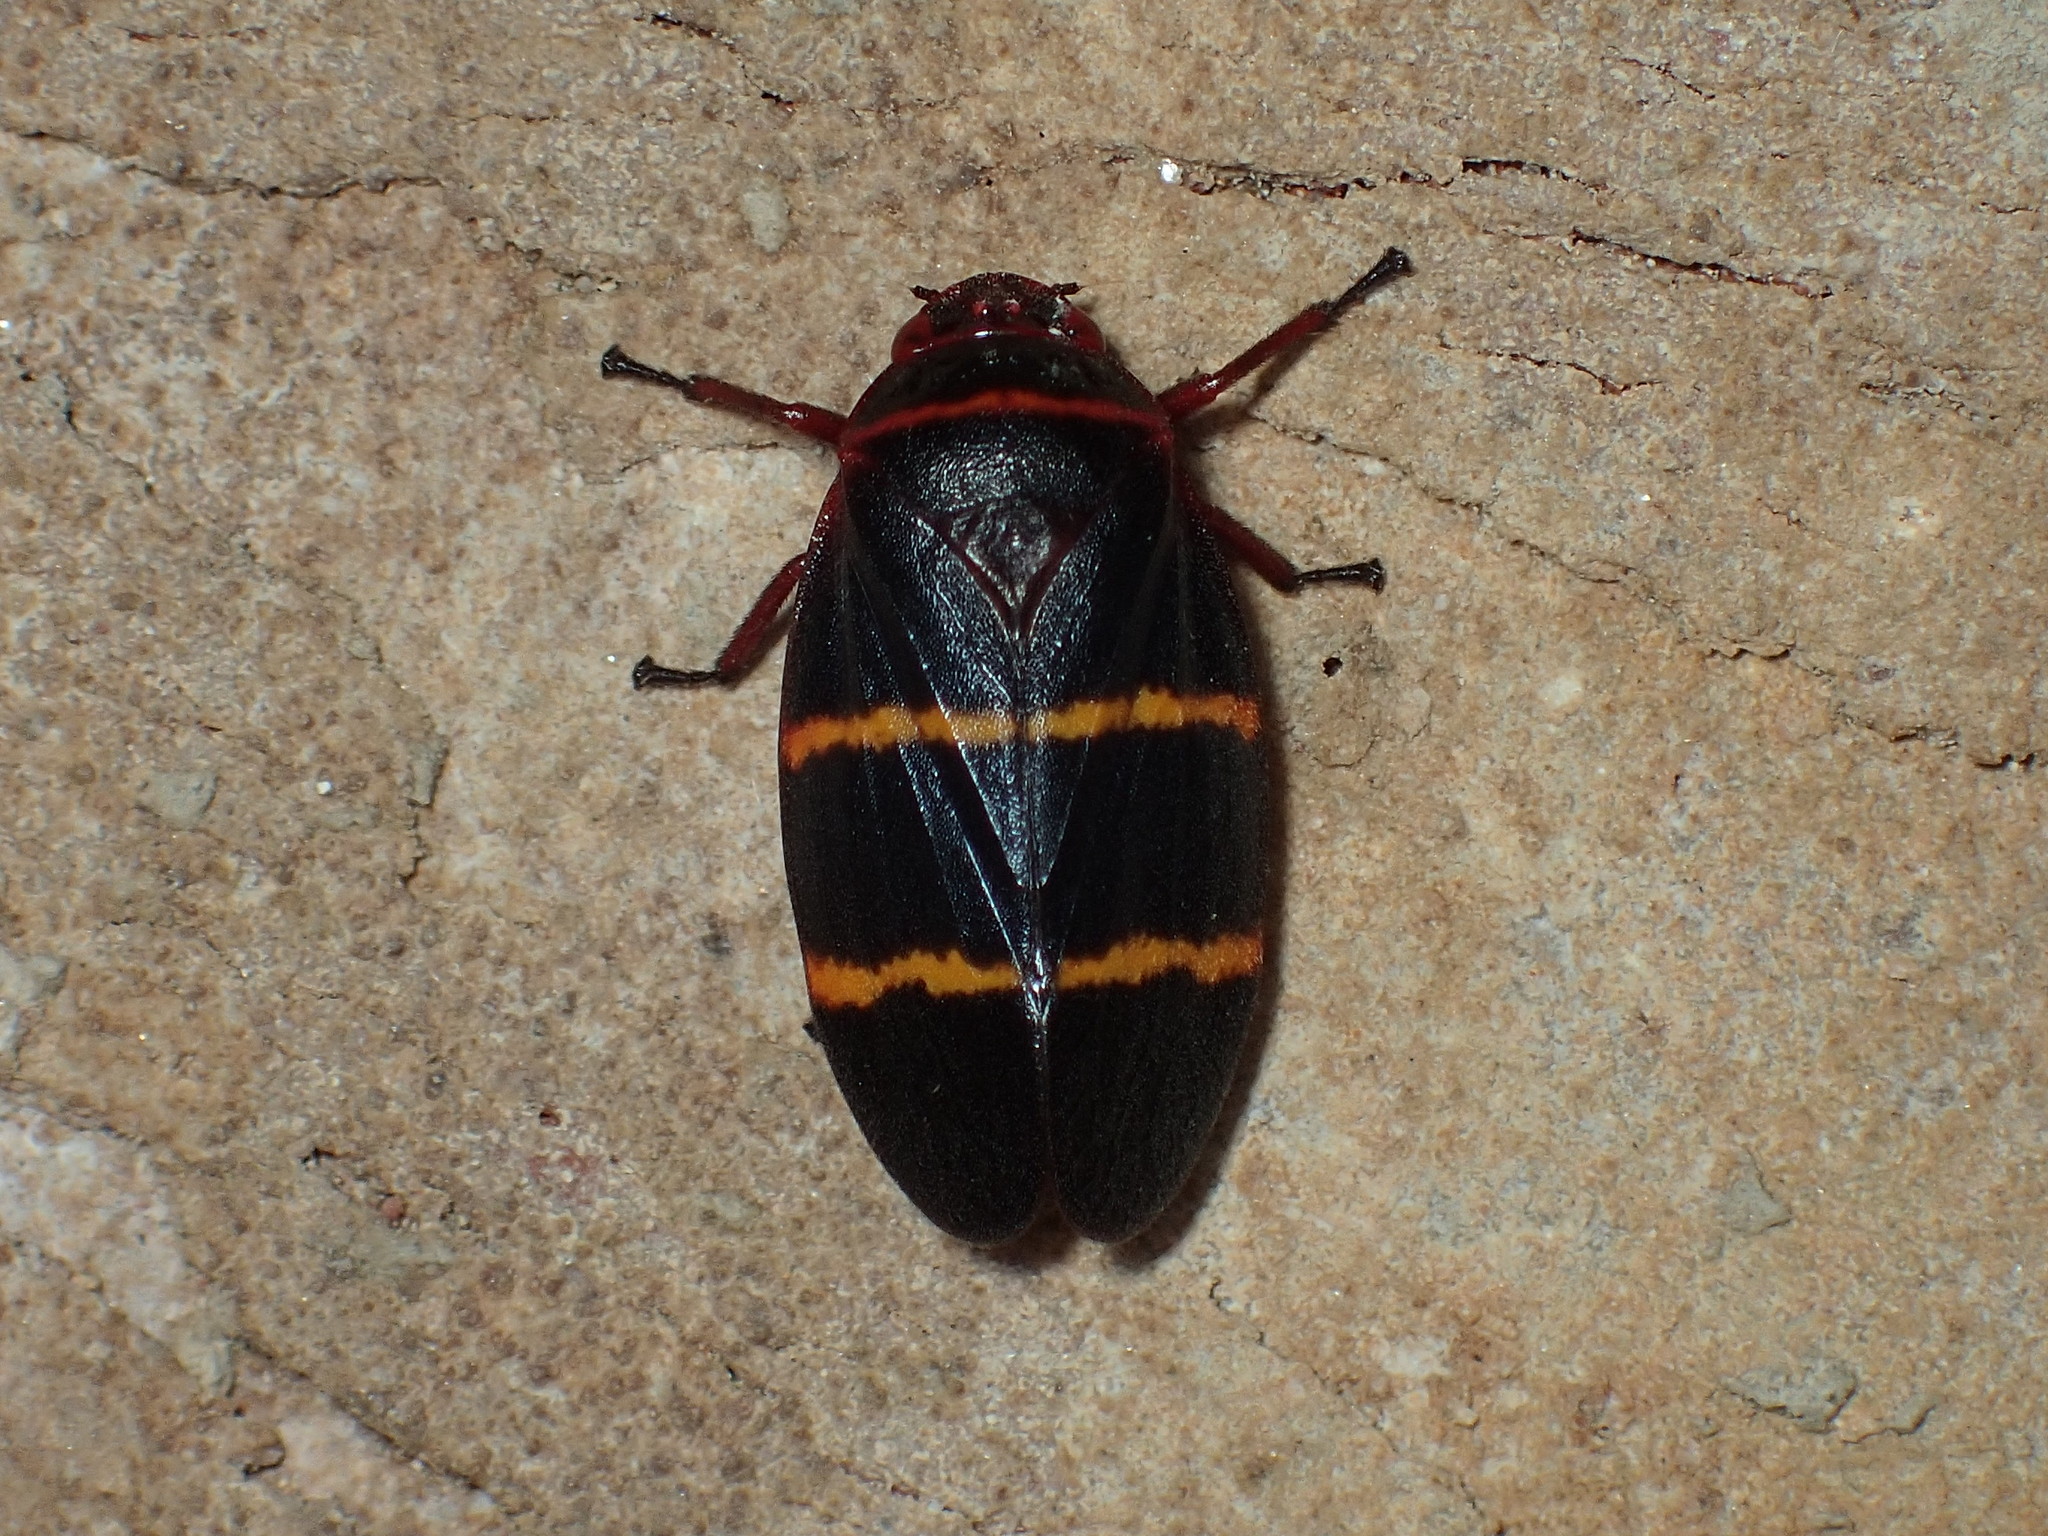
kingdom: Animalia
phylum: Arthropoda
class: Insecta
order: Hemiptera
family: Cercopidae
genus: Prosapia
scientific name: Prosapia bicincta
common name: Twolined spittlebug
